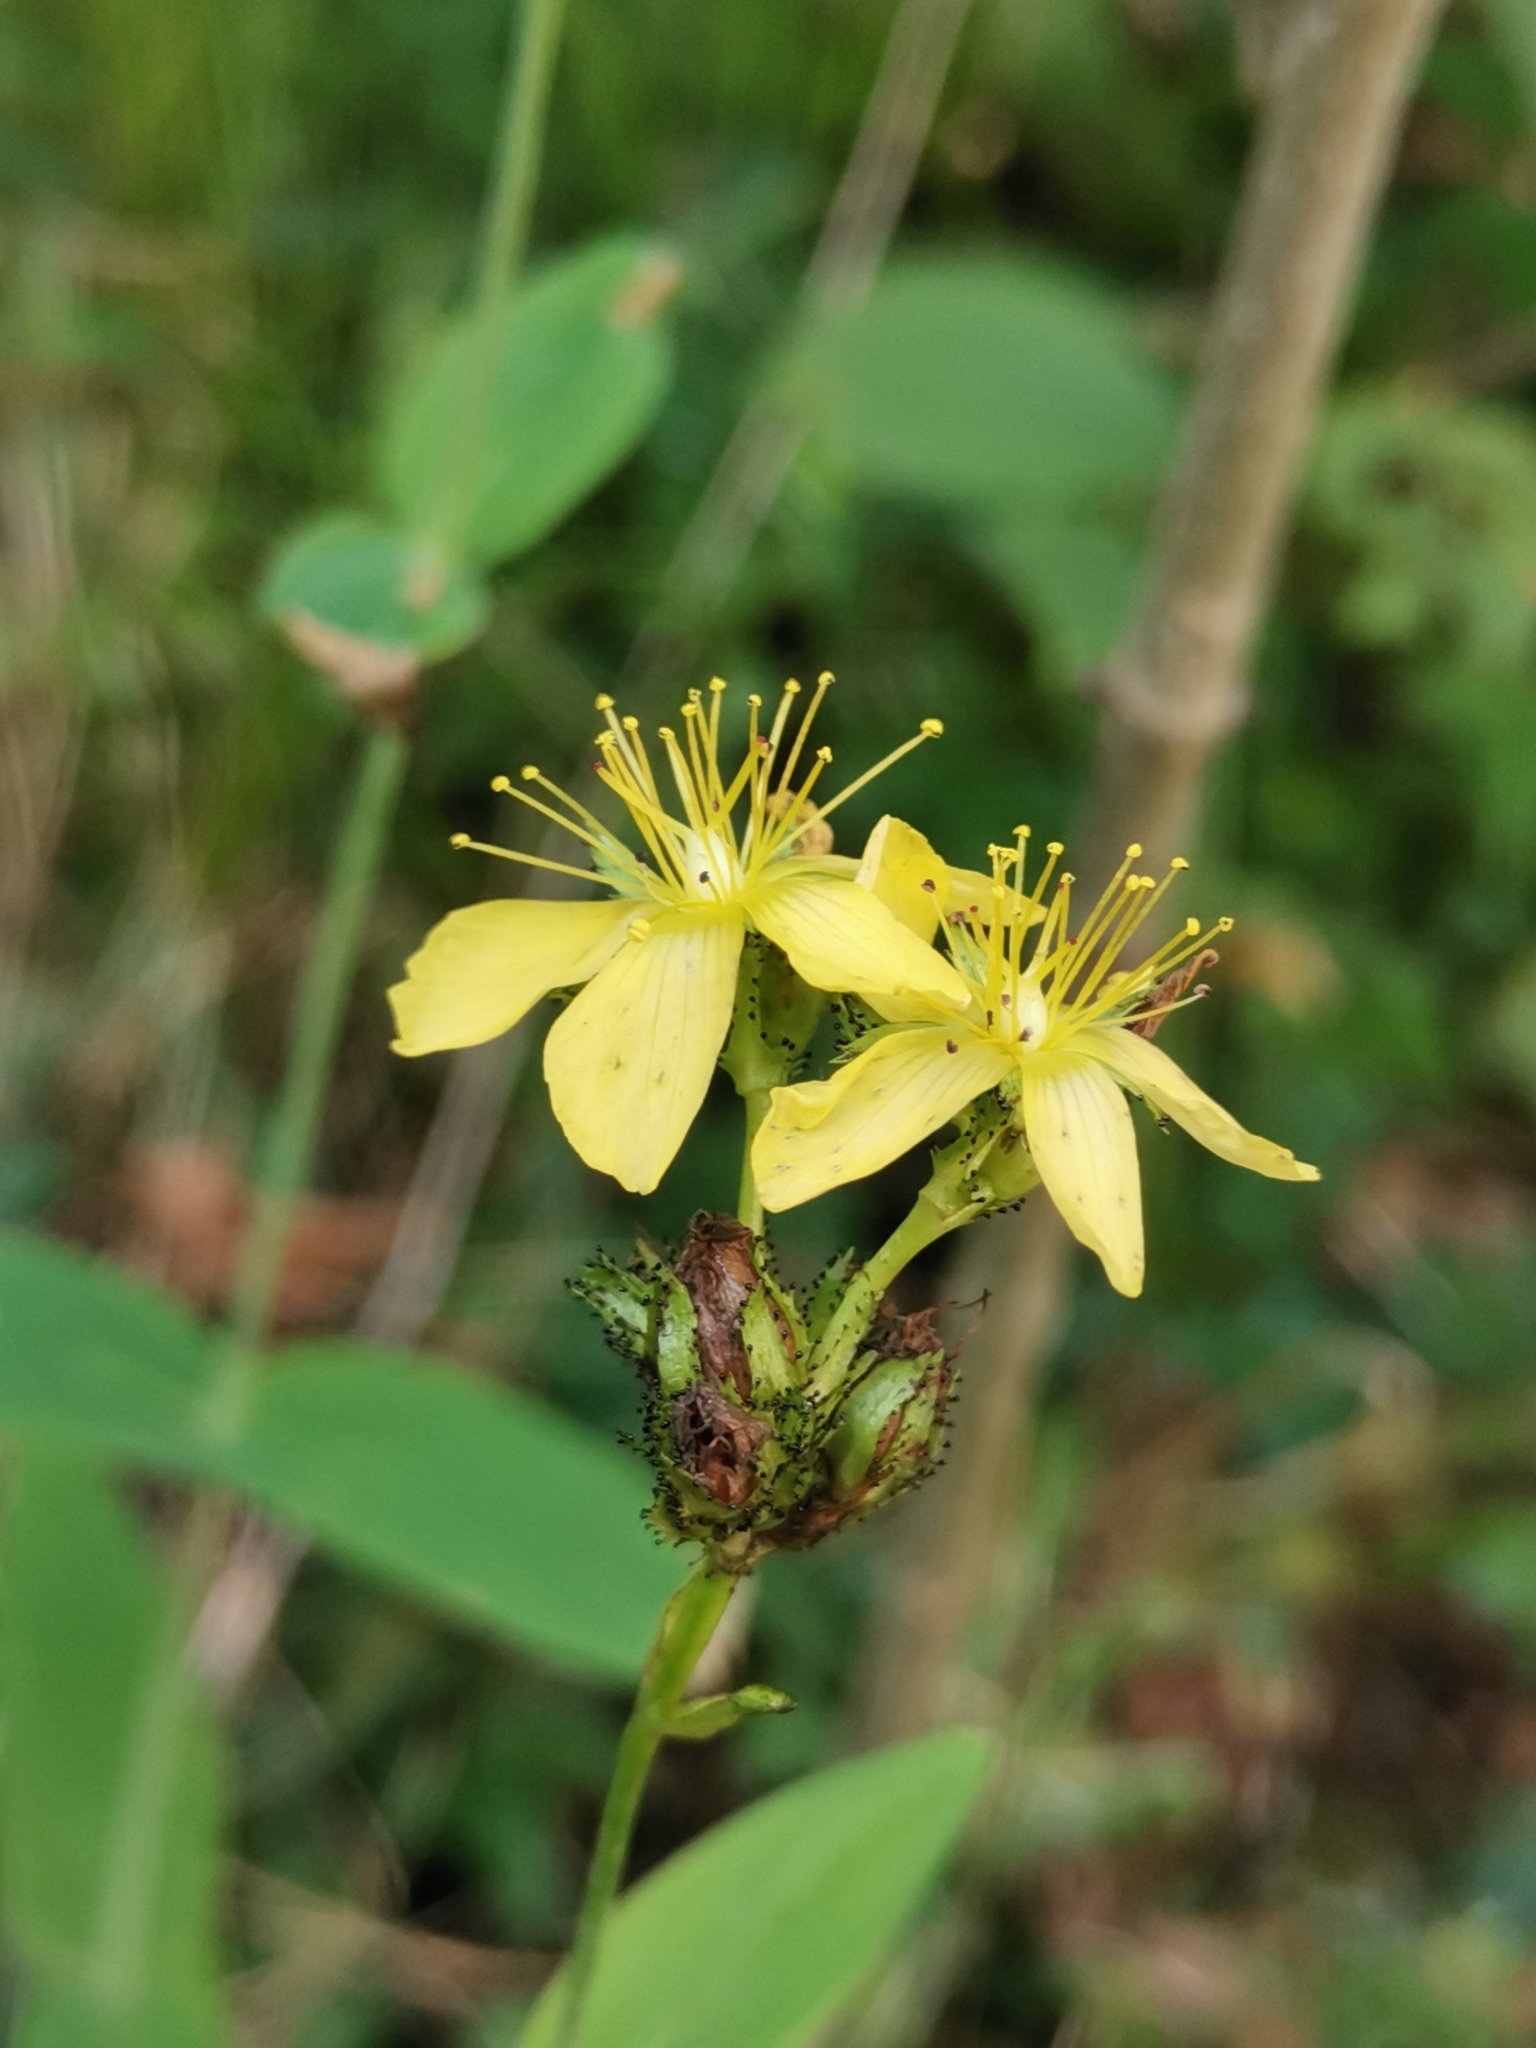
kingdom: Plantae
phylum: Tracheophyta
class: Magnoliopsida
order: Malpighiales
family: Hypericaceae
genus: Hypericum
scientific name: Hypericum montanum
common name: Pale st. john's-wort
